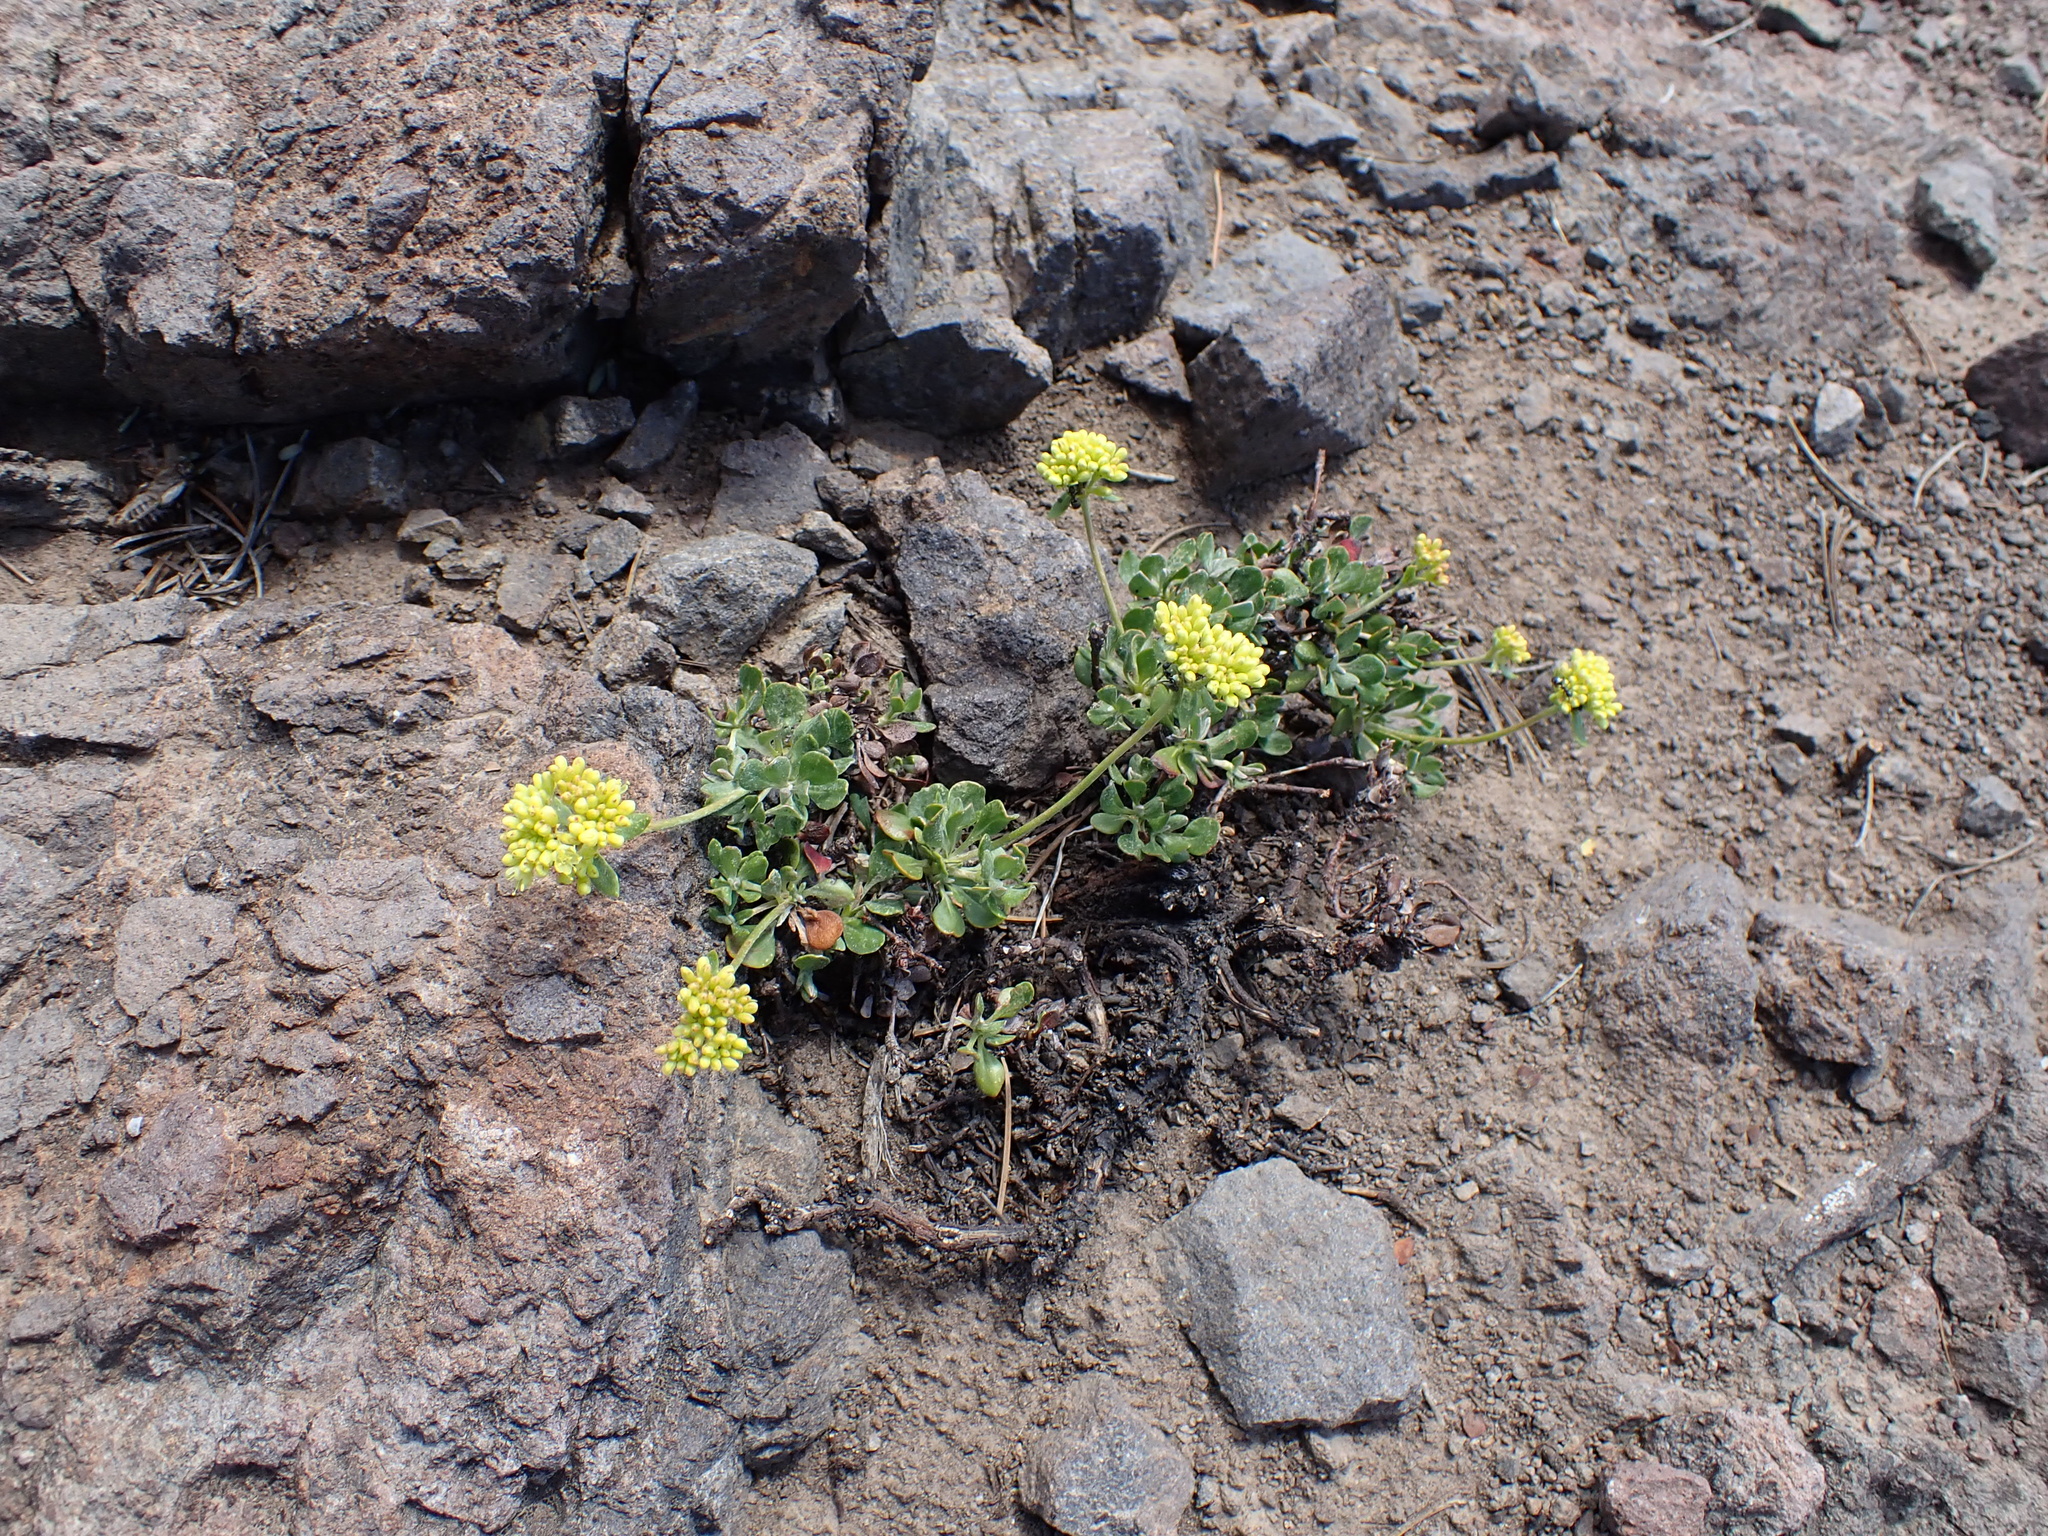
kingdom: Plantae
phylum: Tracheophyta
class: Magnoliopsida
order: Caryophyllales
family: Polygonaceae
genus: Eriogonum
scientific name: Eriogonum umbellatum
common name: Sulfur-buckwheat
